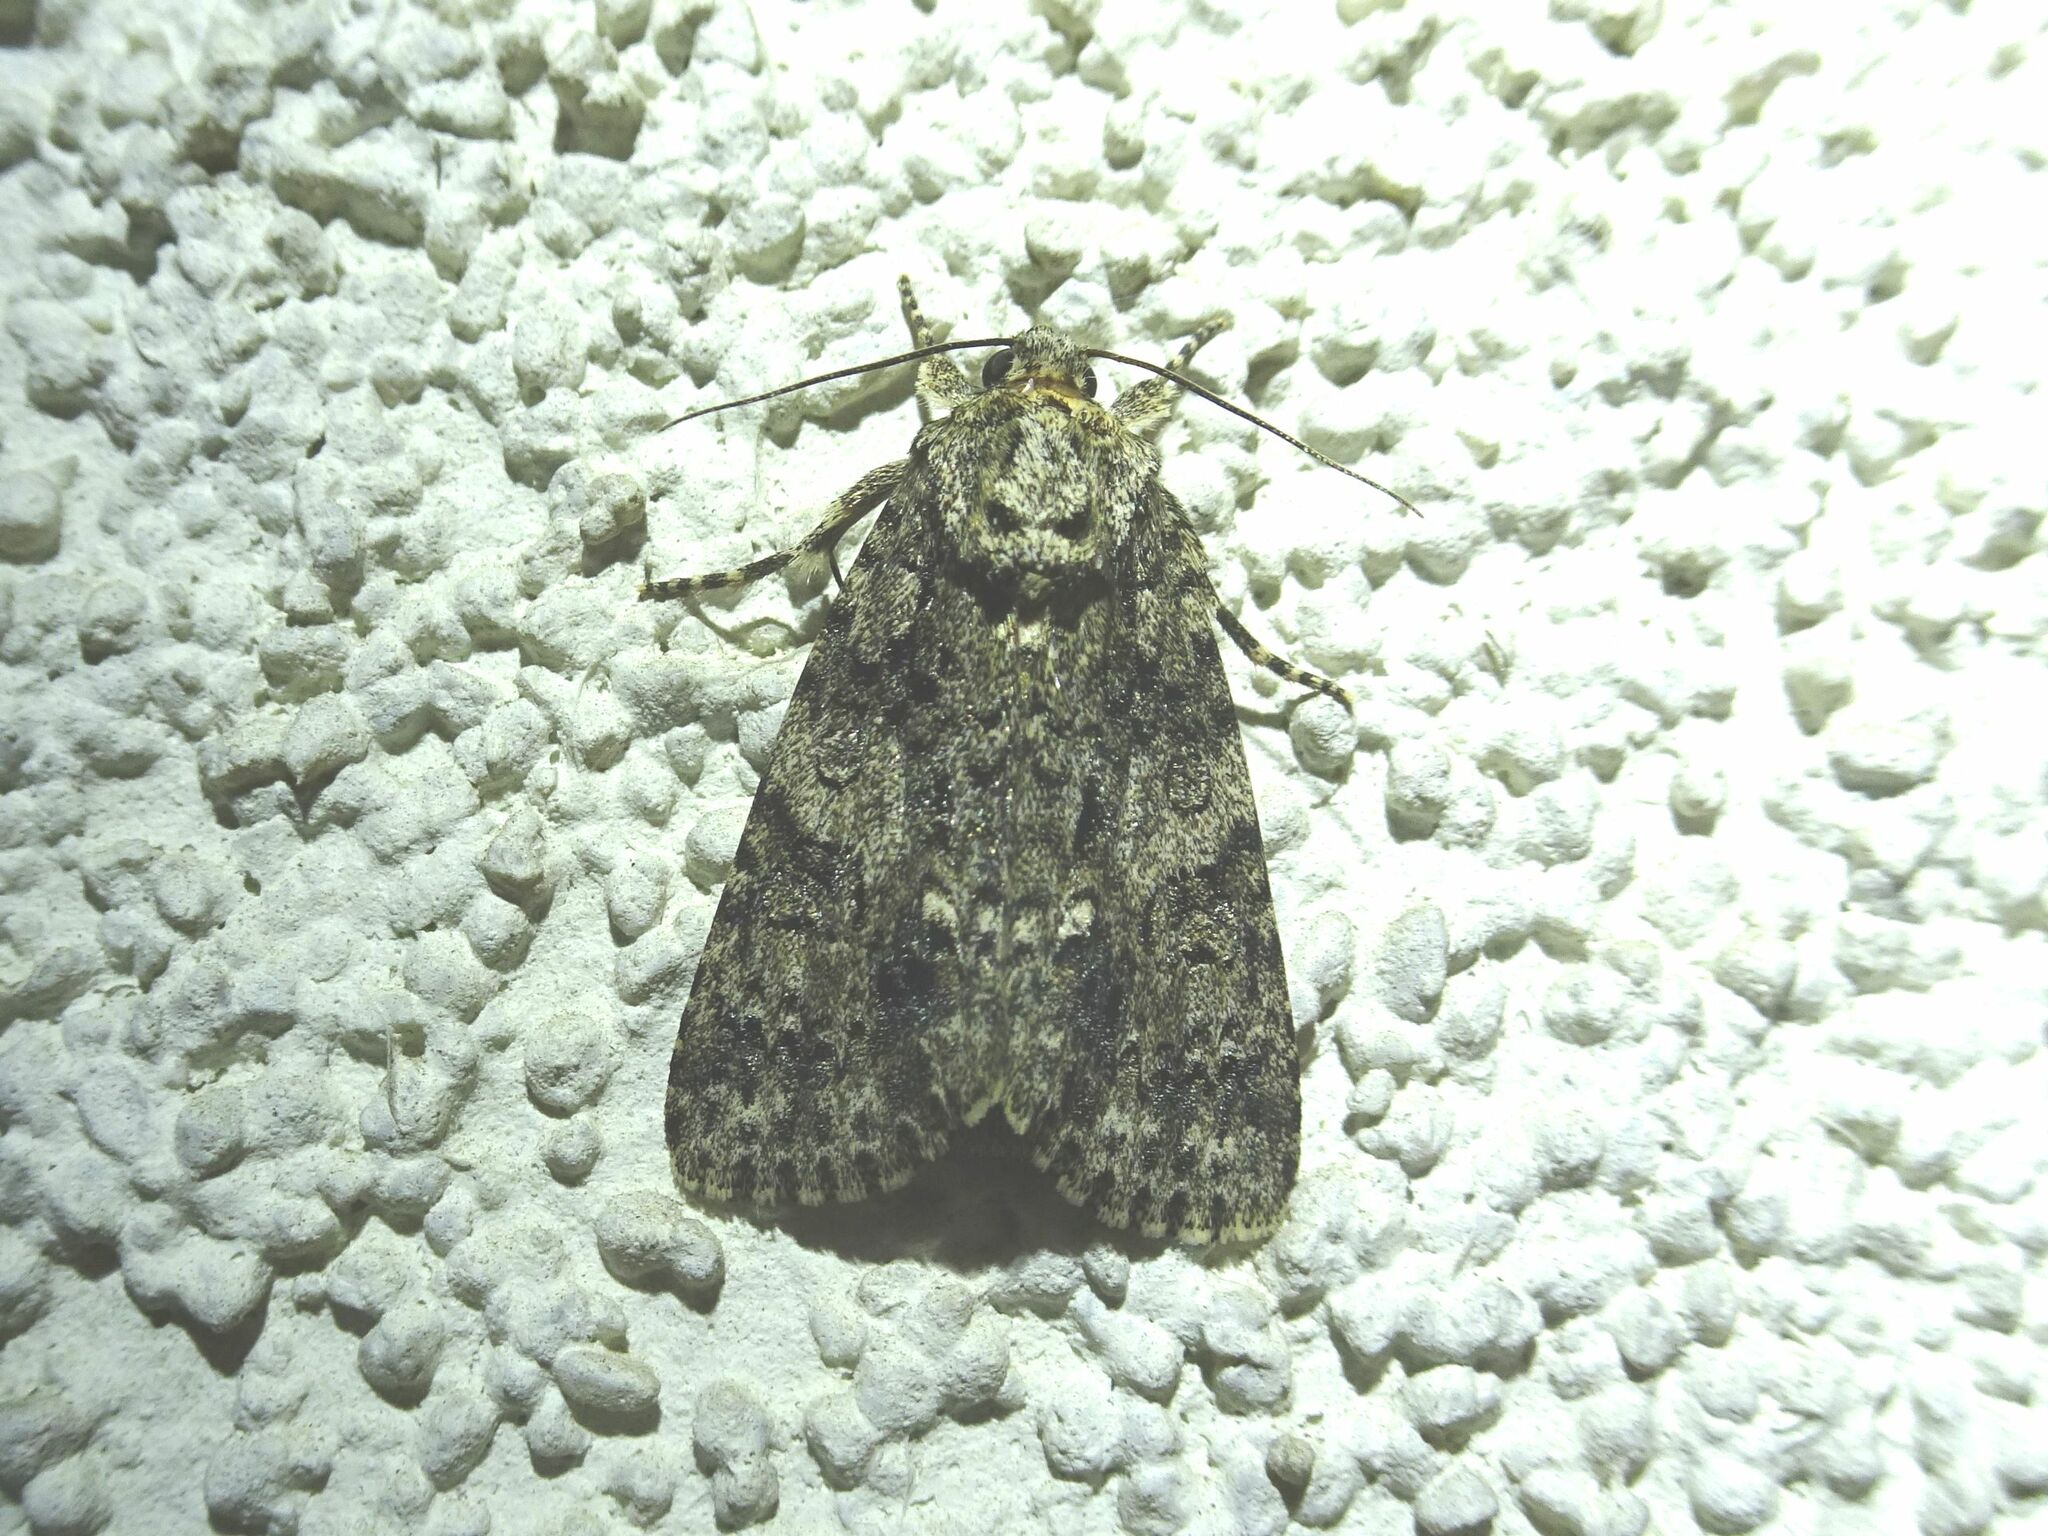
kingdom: Animalia
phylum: Arthropoda
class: Insecta
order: Lepidoptera
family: Noctuidae
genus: Acronicta
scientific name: Acronicta rumicis
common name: Knot grass
